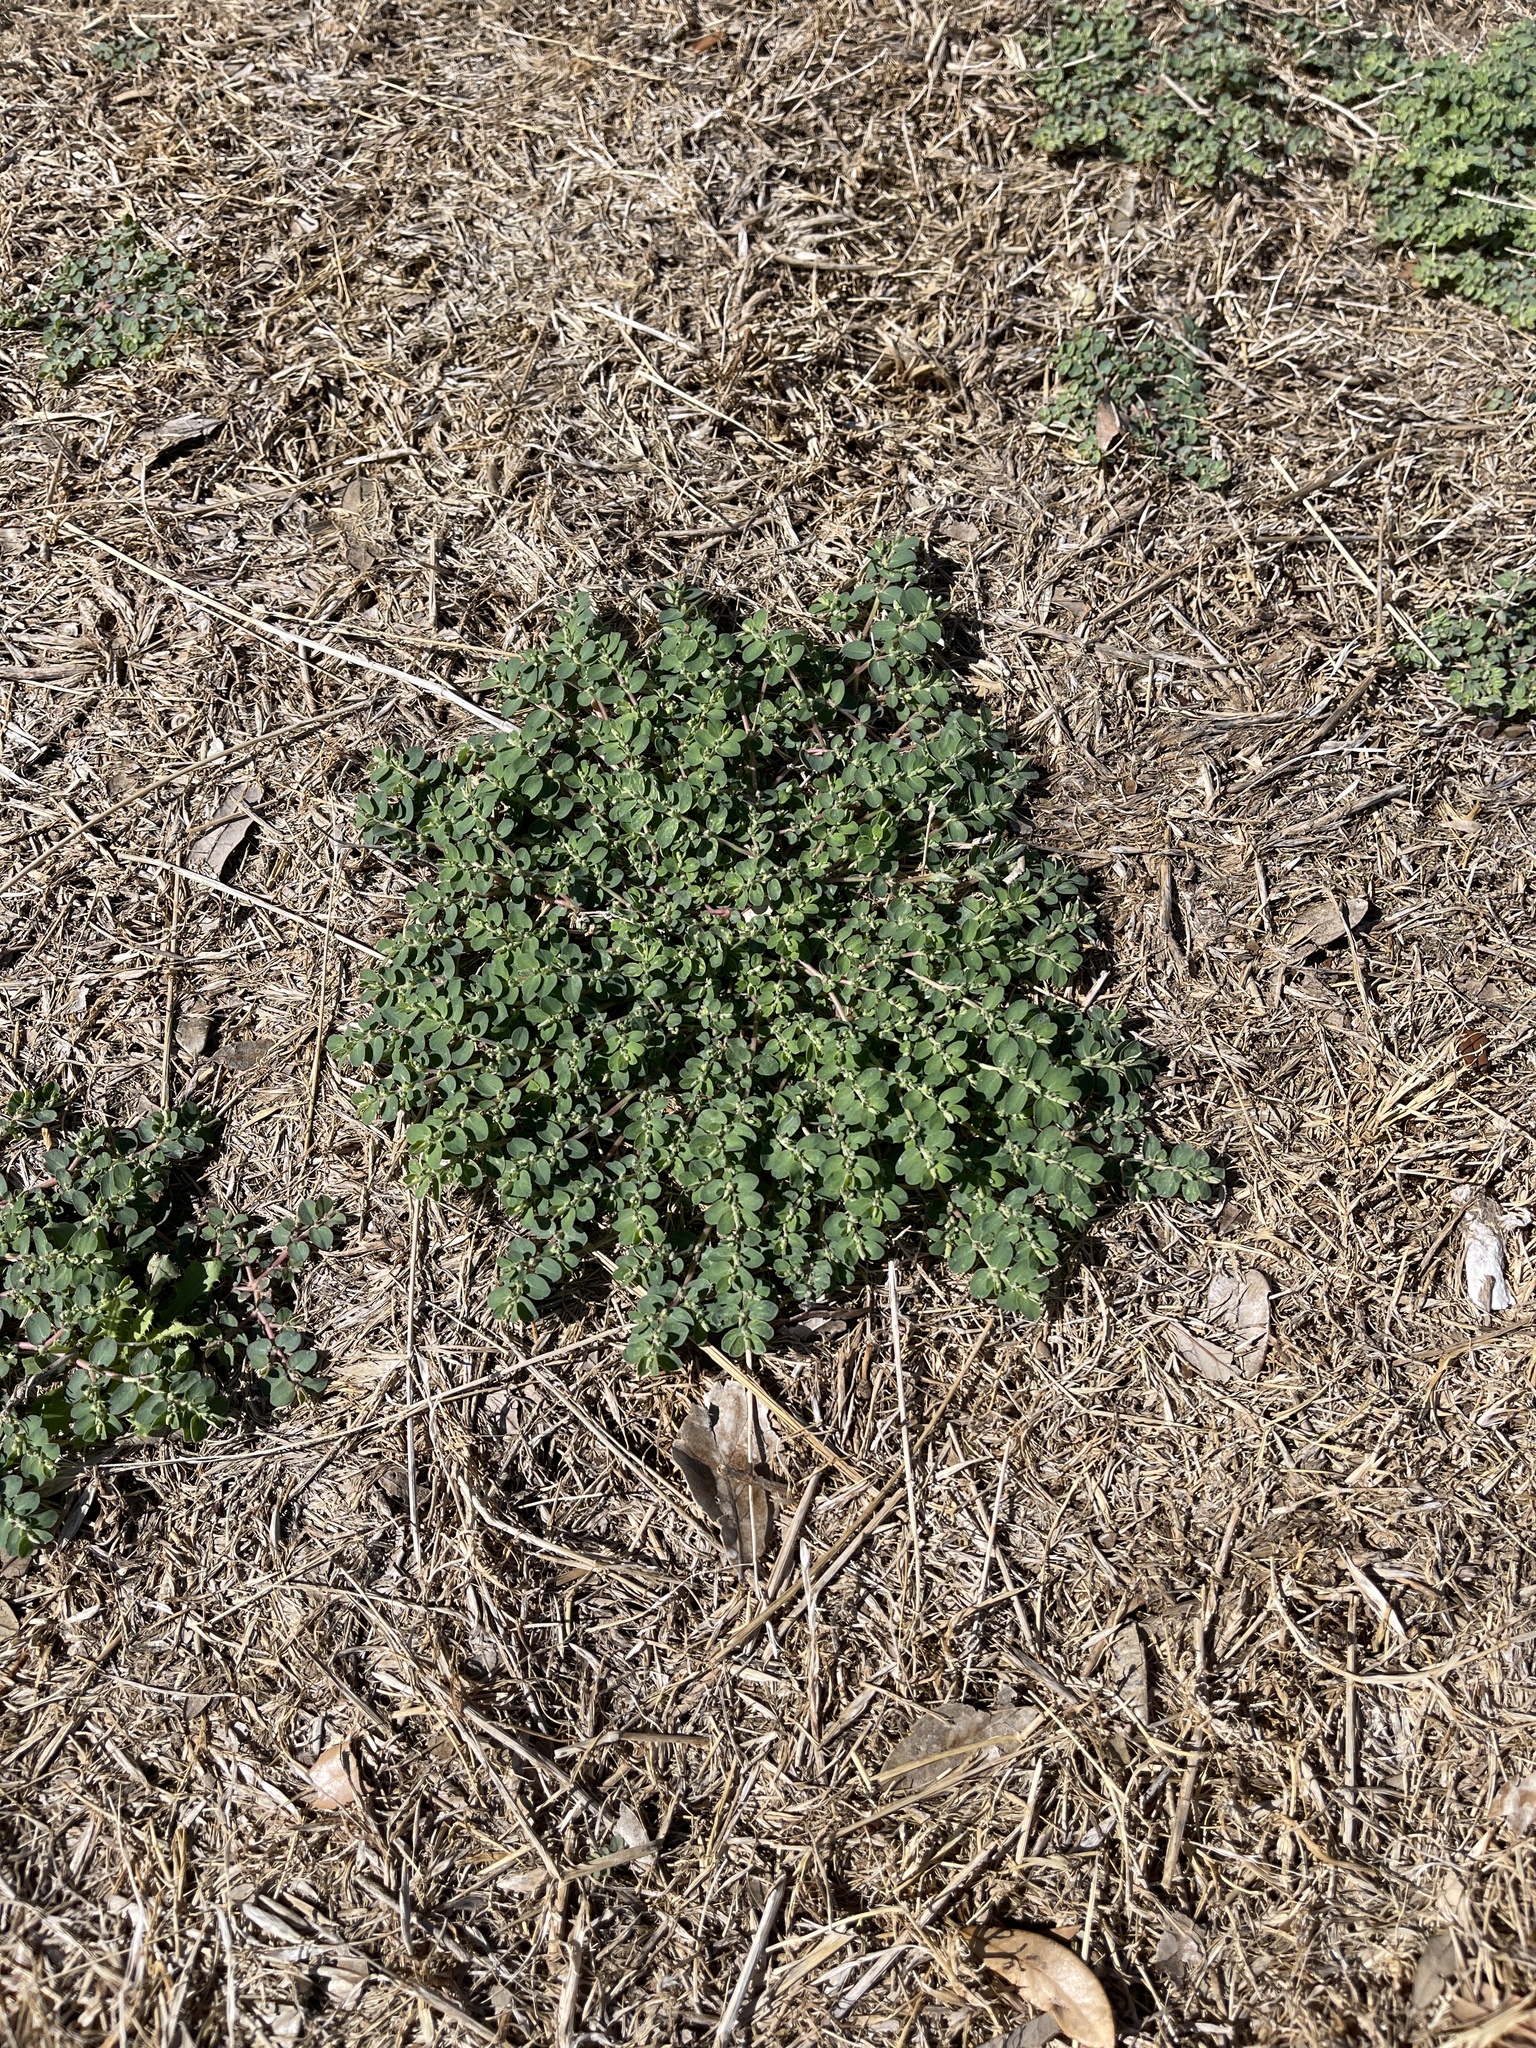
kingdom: Plantae
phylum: Tracheophyta
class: Magnoliopsida
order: Malpighiales
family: Euphorbiaceae
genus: Euphorbia
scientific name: Euphorbia prostrata
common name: Prostrate sandmat
